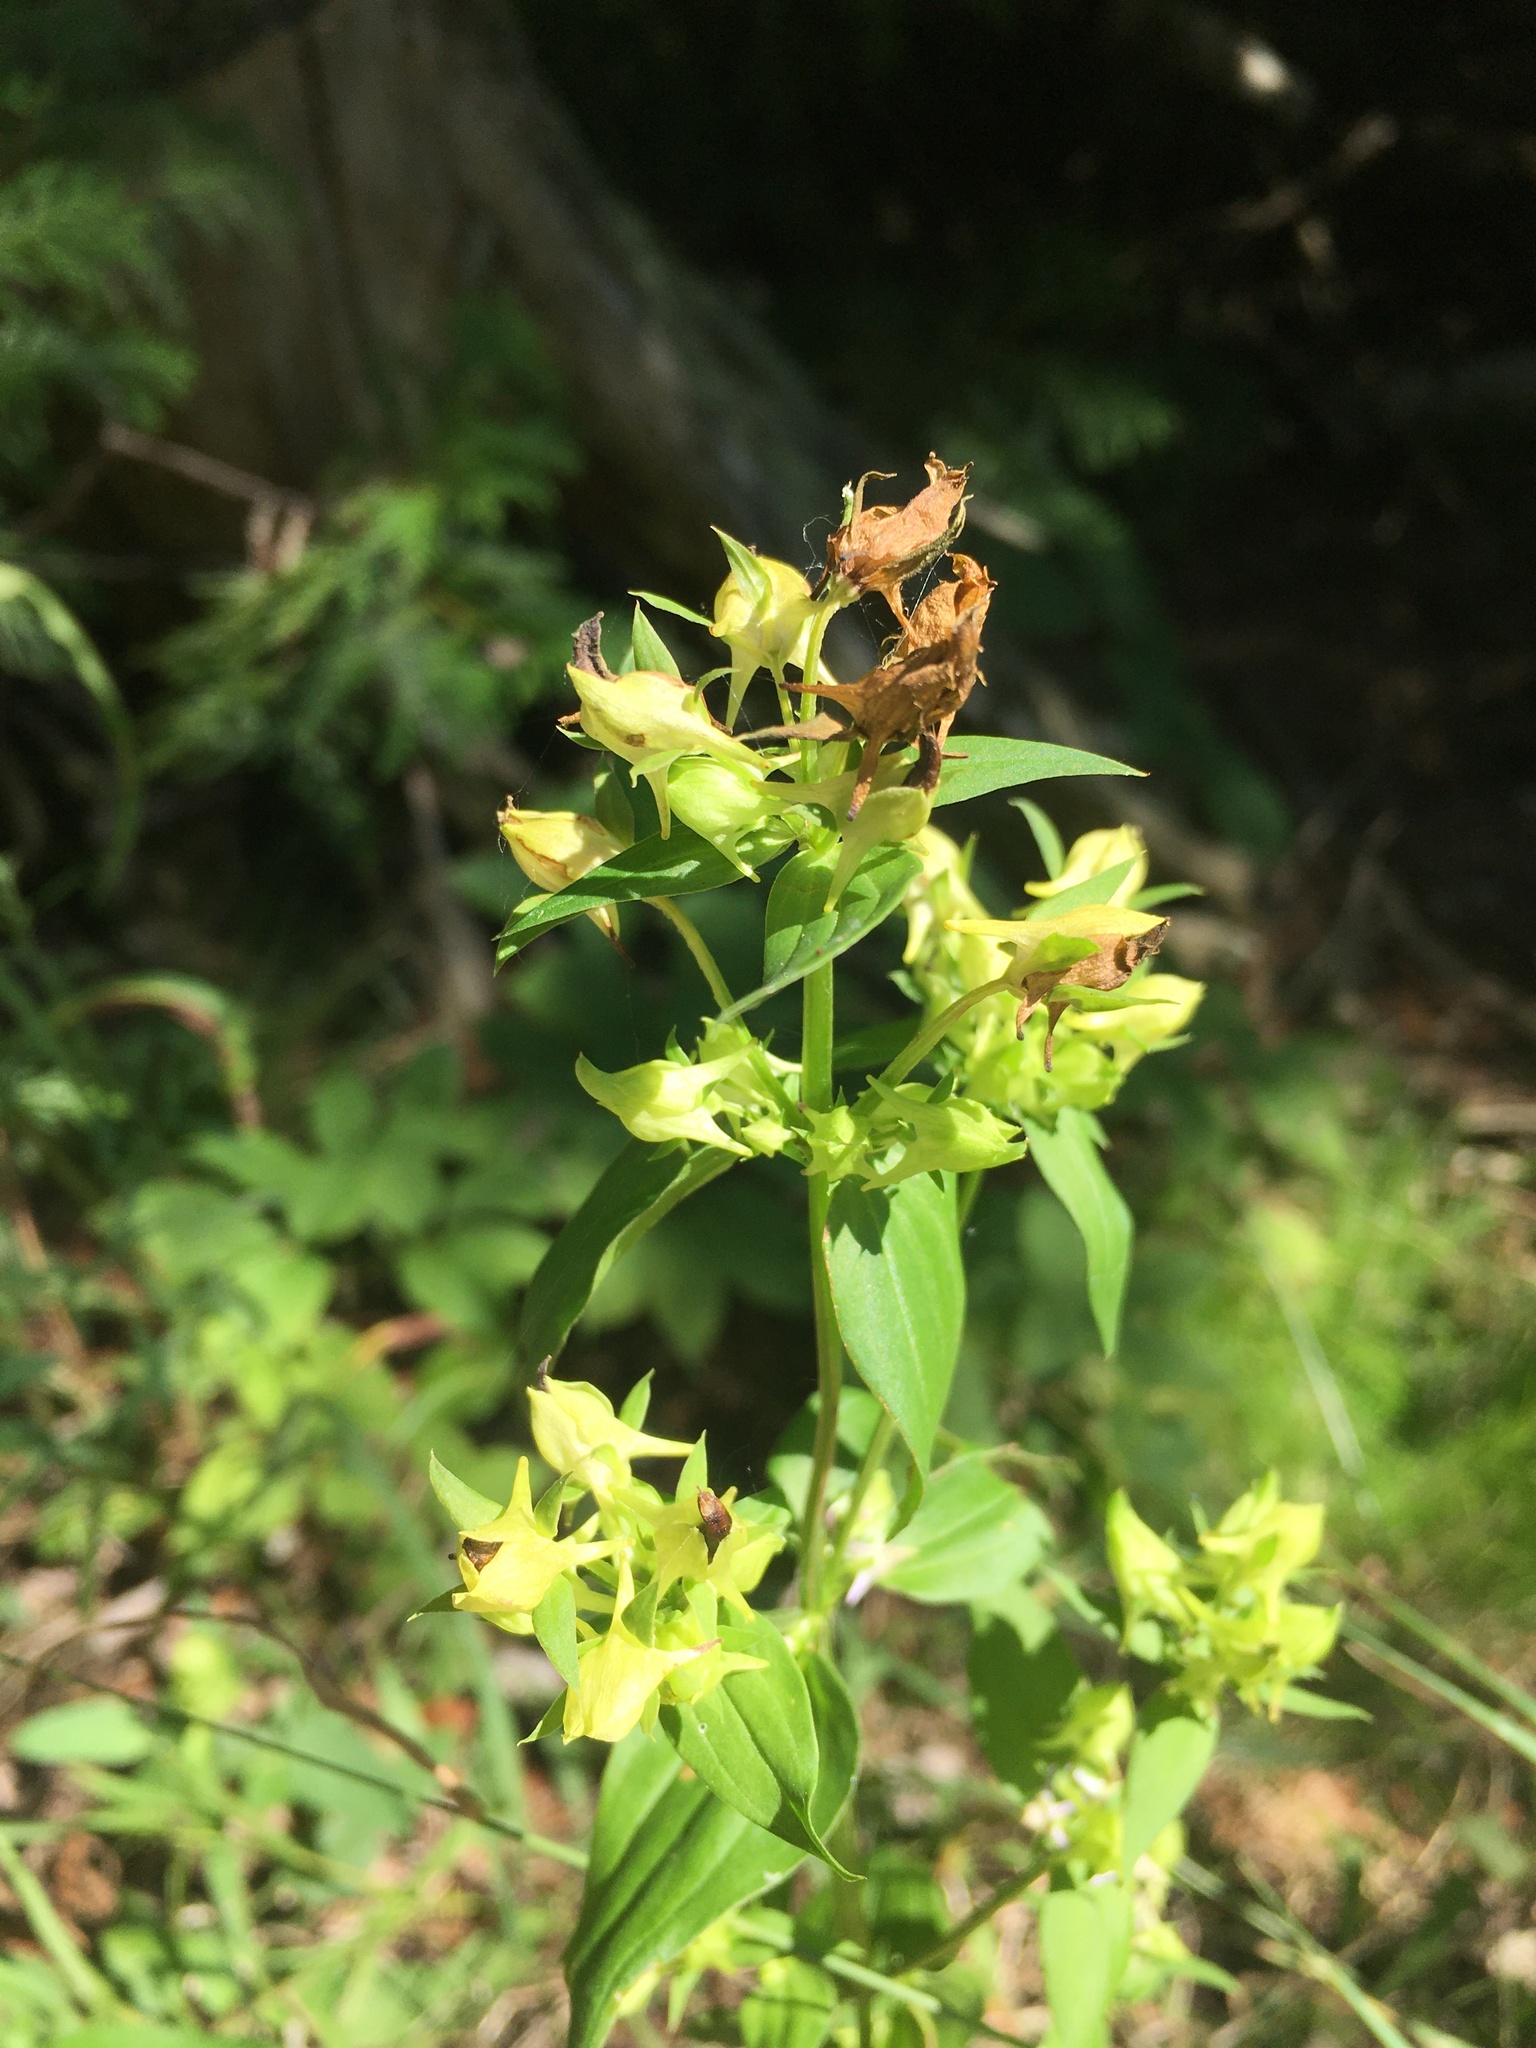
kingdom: Plantae
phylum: Tracheophyta
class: Magnoliopsida
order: Gentianales
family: Gentianaceae
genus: Halenia
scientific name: Halenia deflexa
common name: American spurred gentian
